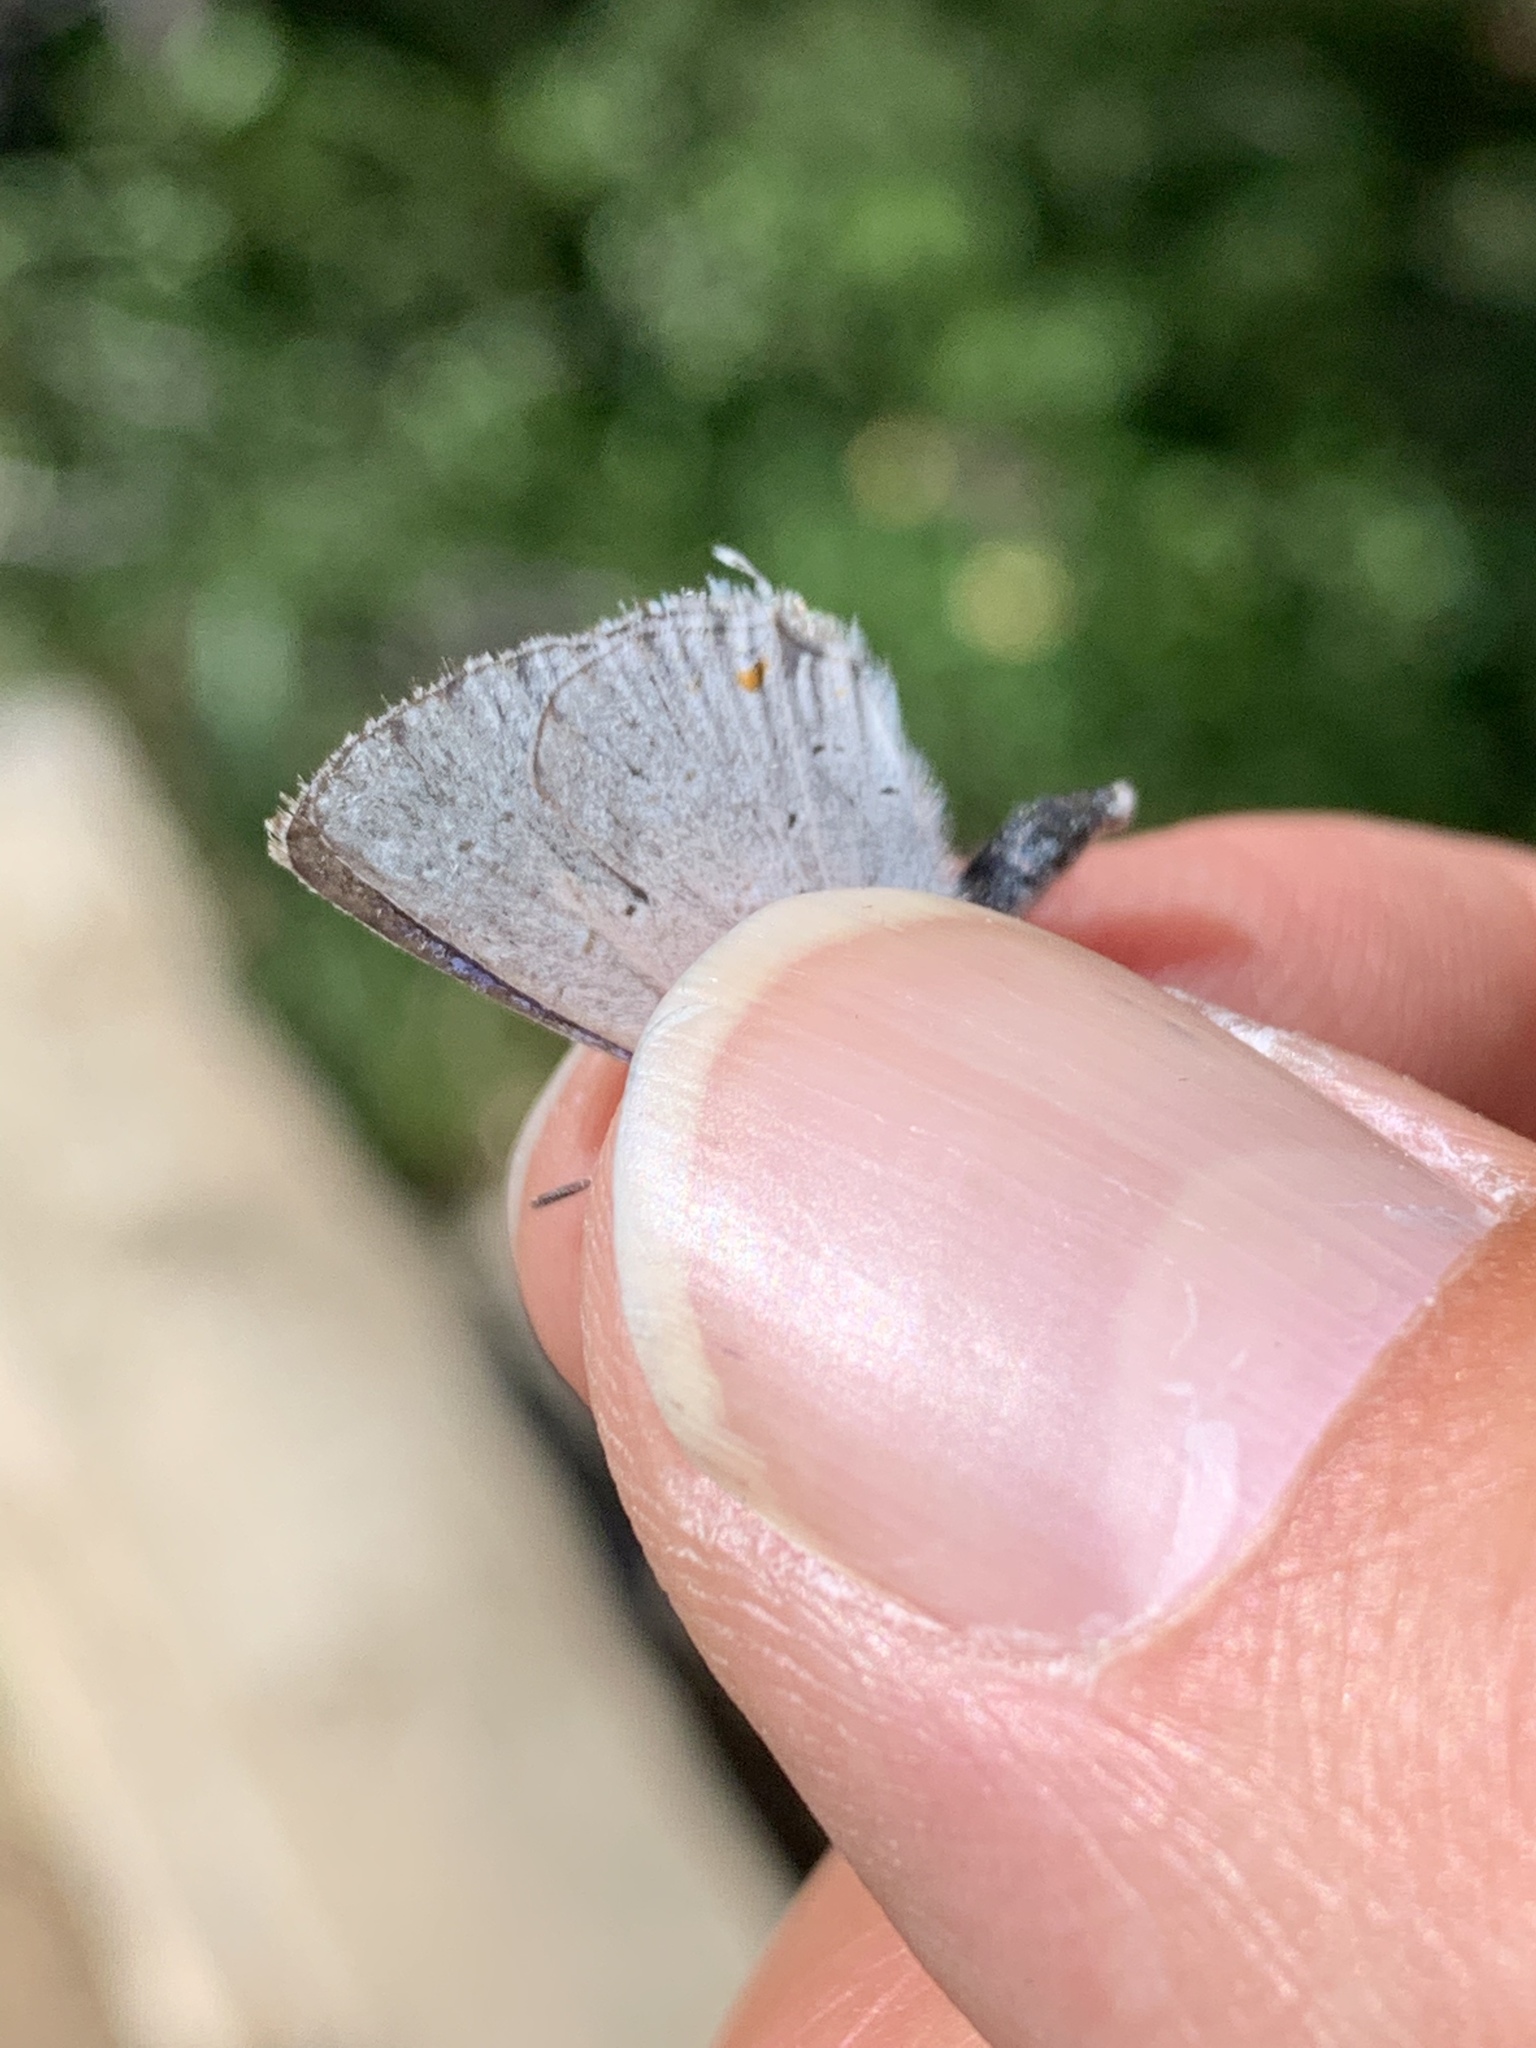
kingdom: Animalia
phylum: Arthropoda
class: Insecta
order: Lepidoptera
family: Lycaenidae
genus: Elkalyce
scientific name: Elkalyce amyntula
